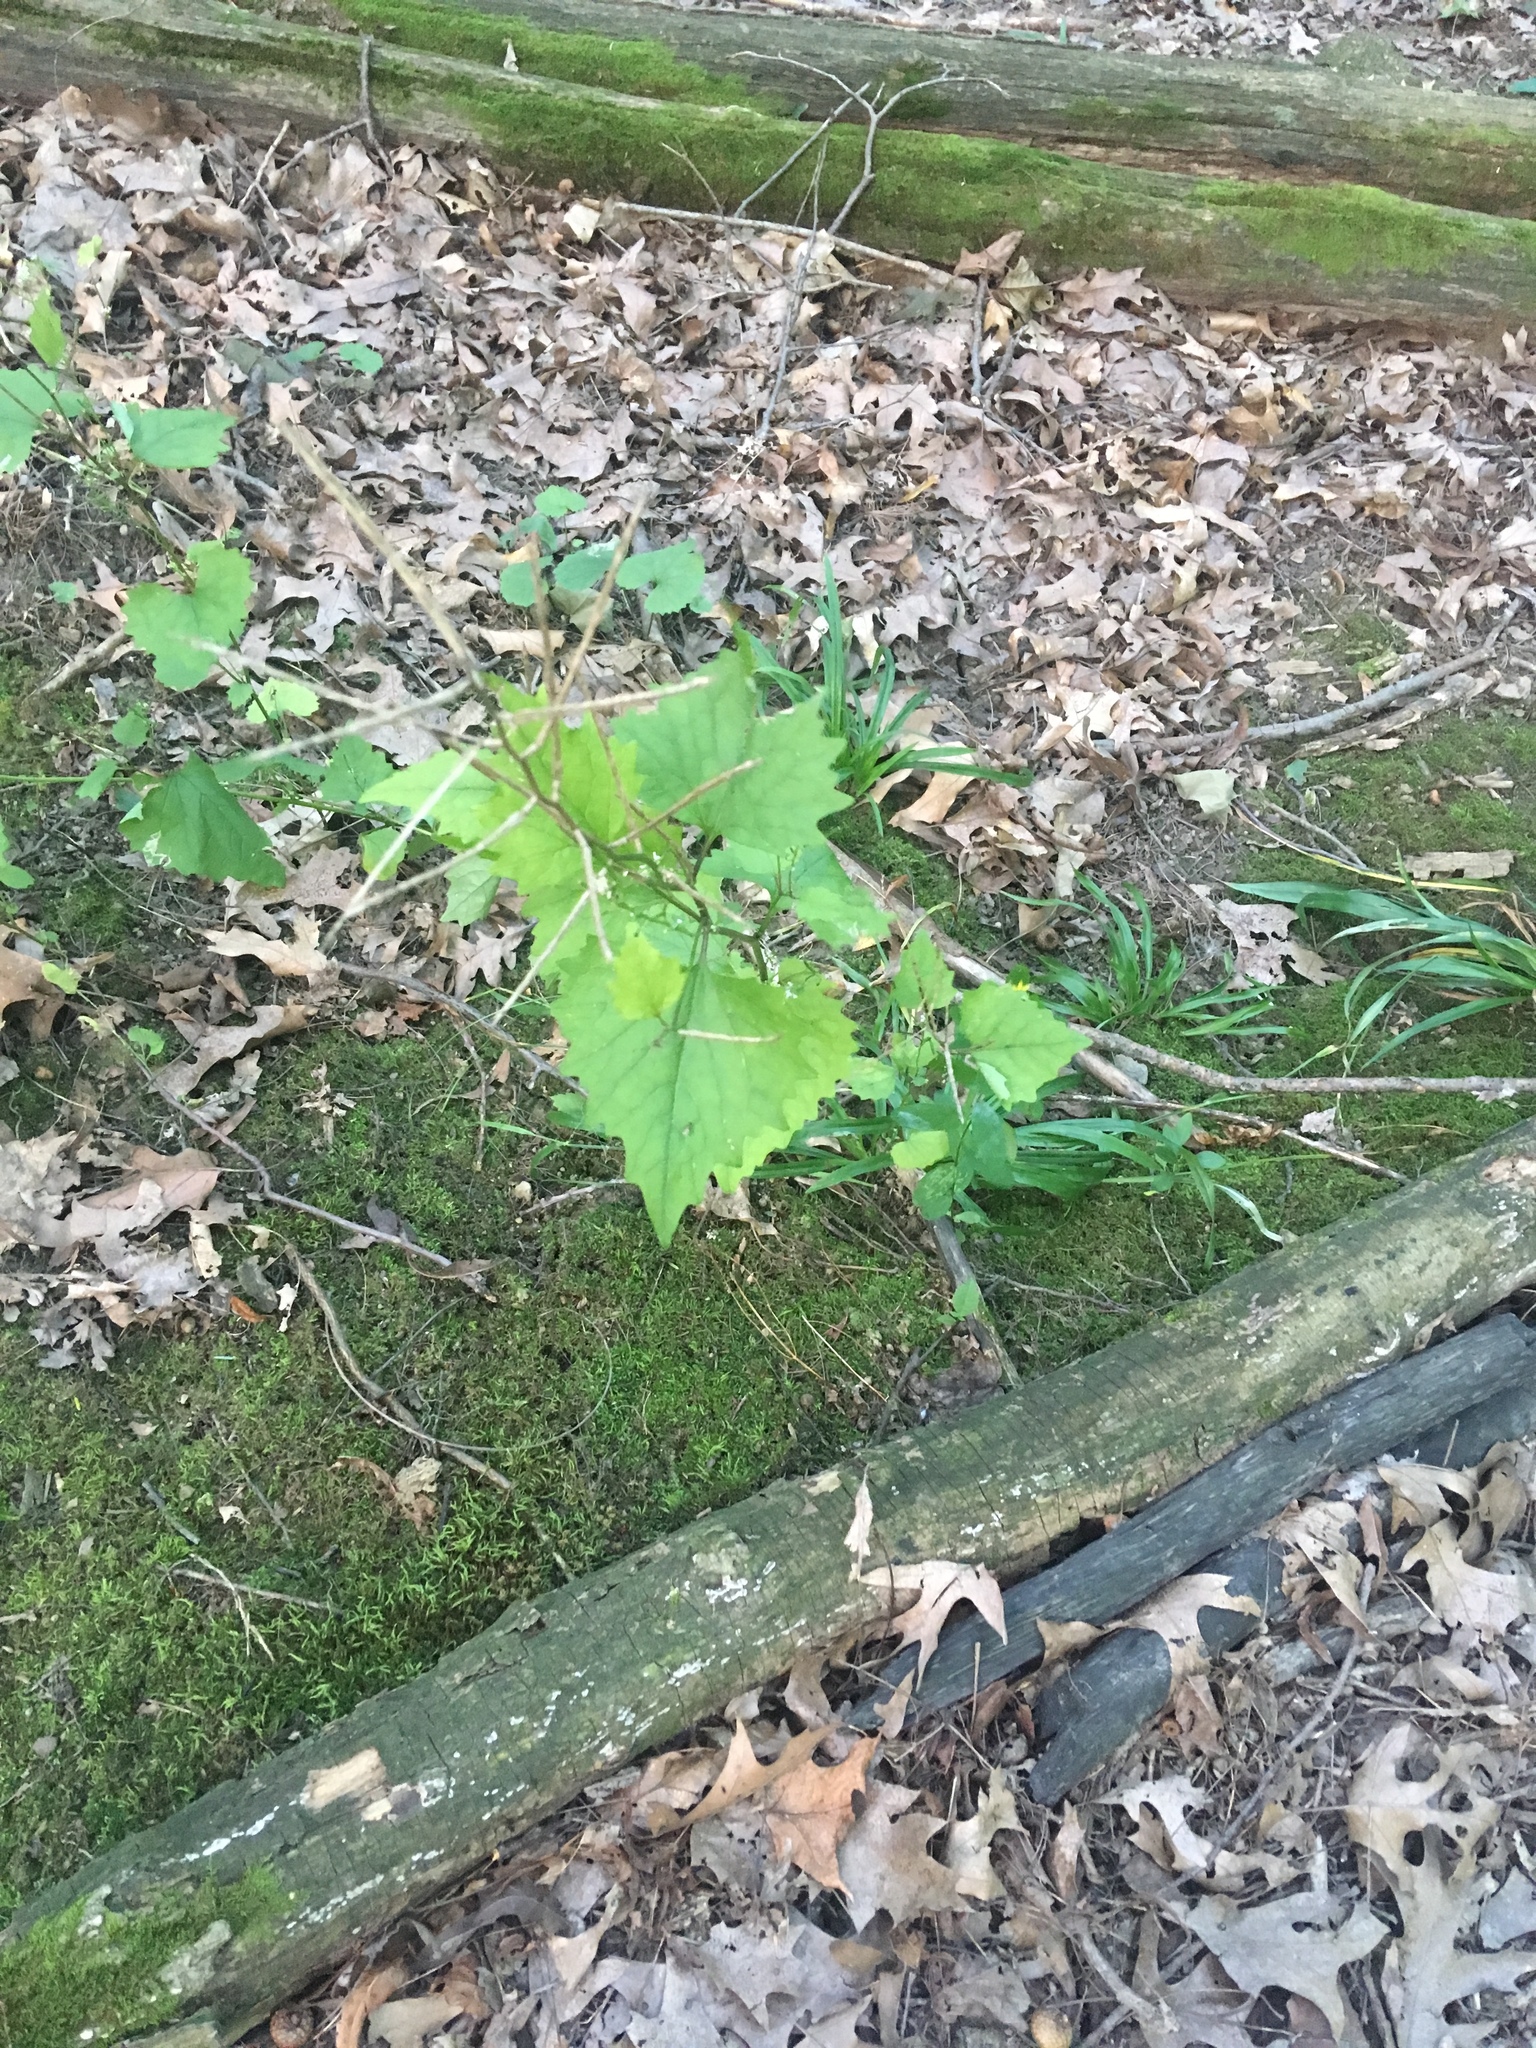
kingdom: Plantae
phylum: Tracheophyta
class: Magnoliopsida
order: Brassicales
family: Brassicaceae
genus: Alliaria
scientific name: Alliaria petiolata
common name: Garlic mustard
